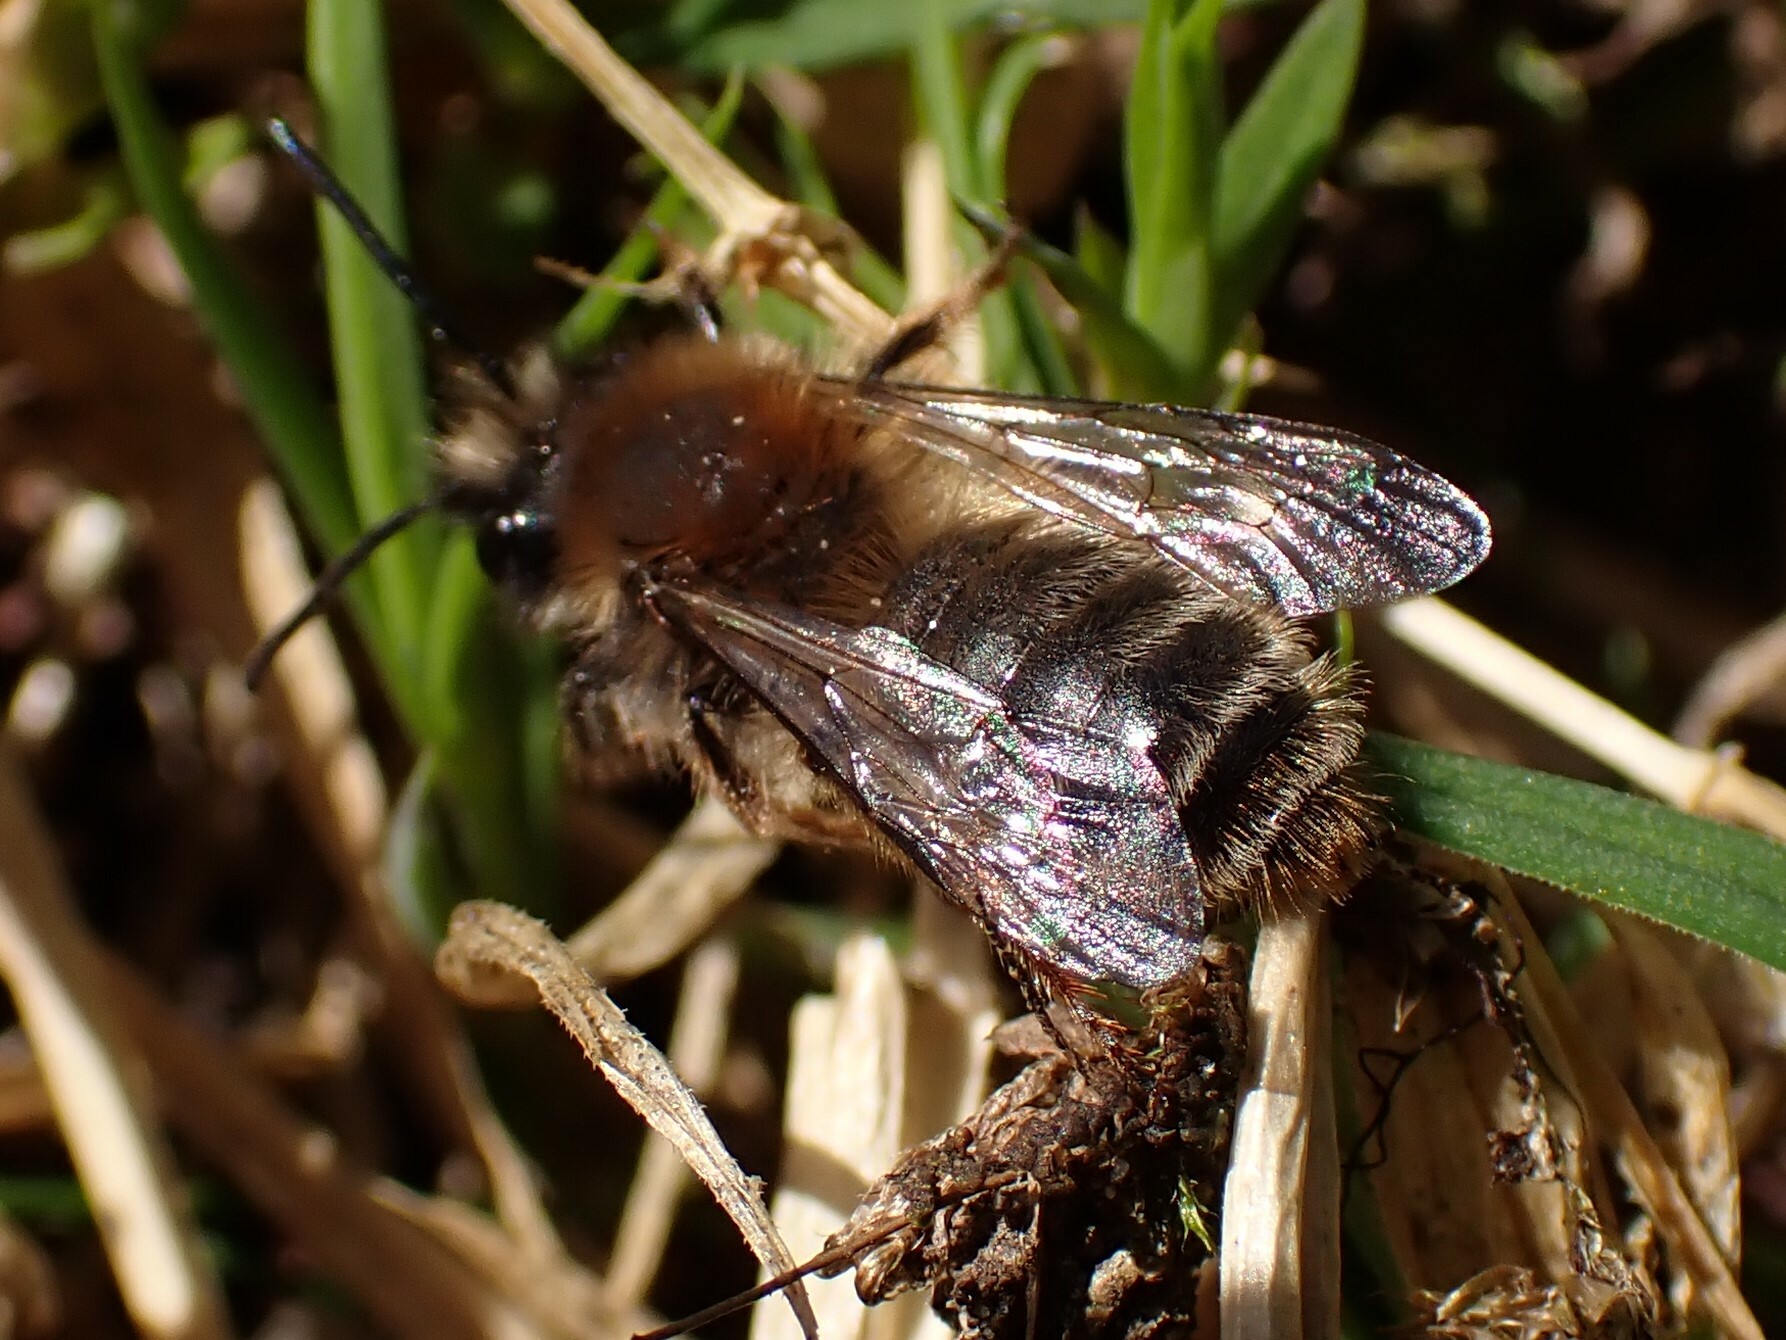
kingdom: Animalia
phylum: Arthropoda
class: Insecta
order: Hymenoptera
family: Andrenidae
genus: Andrena
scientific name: Andrena clarkella
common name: Clarke's mining bee
